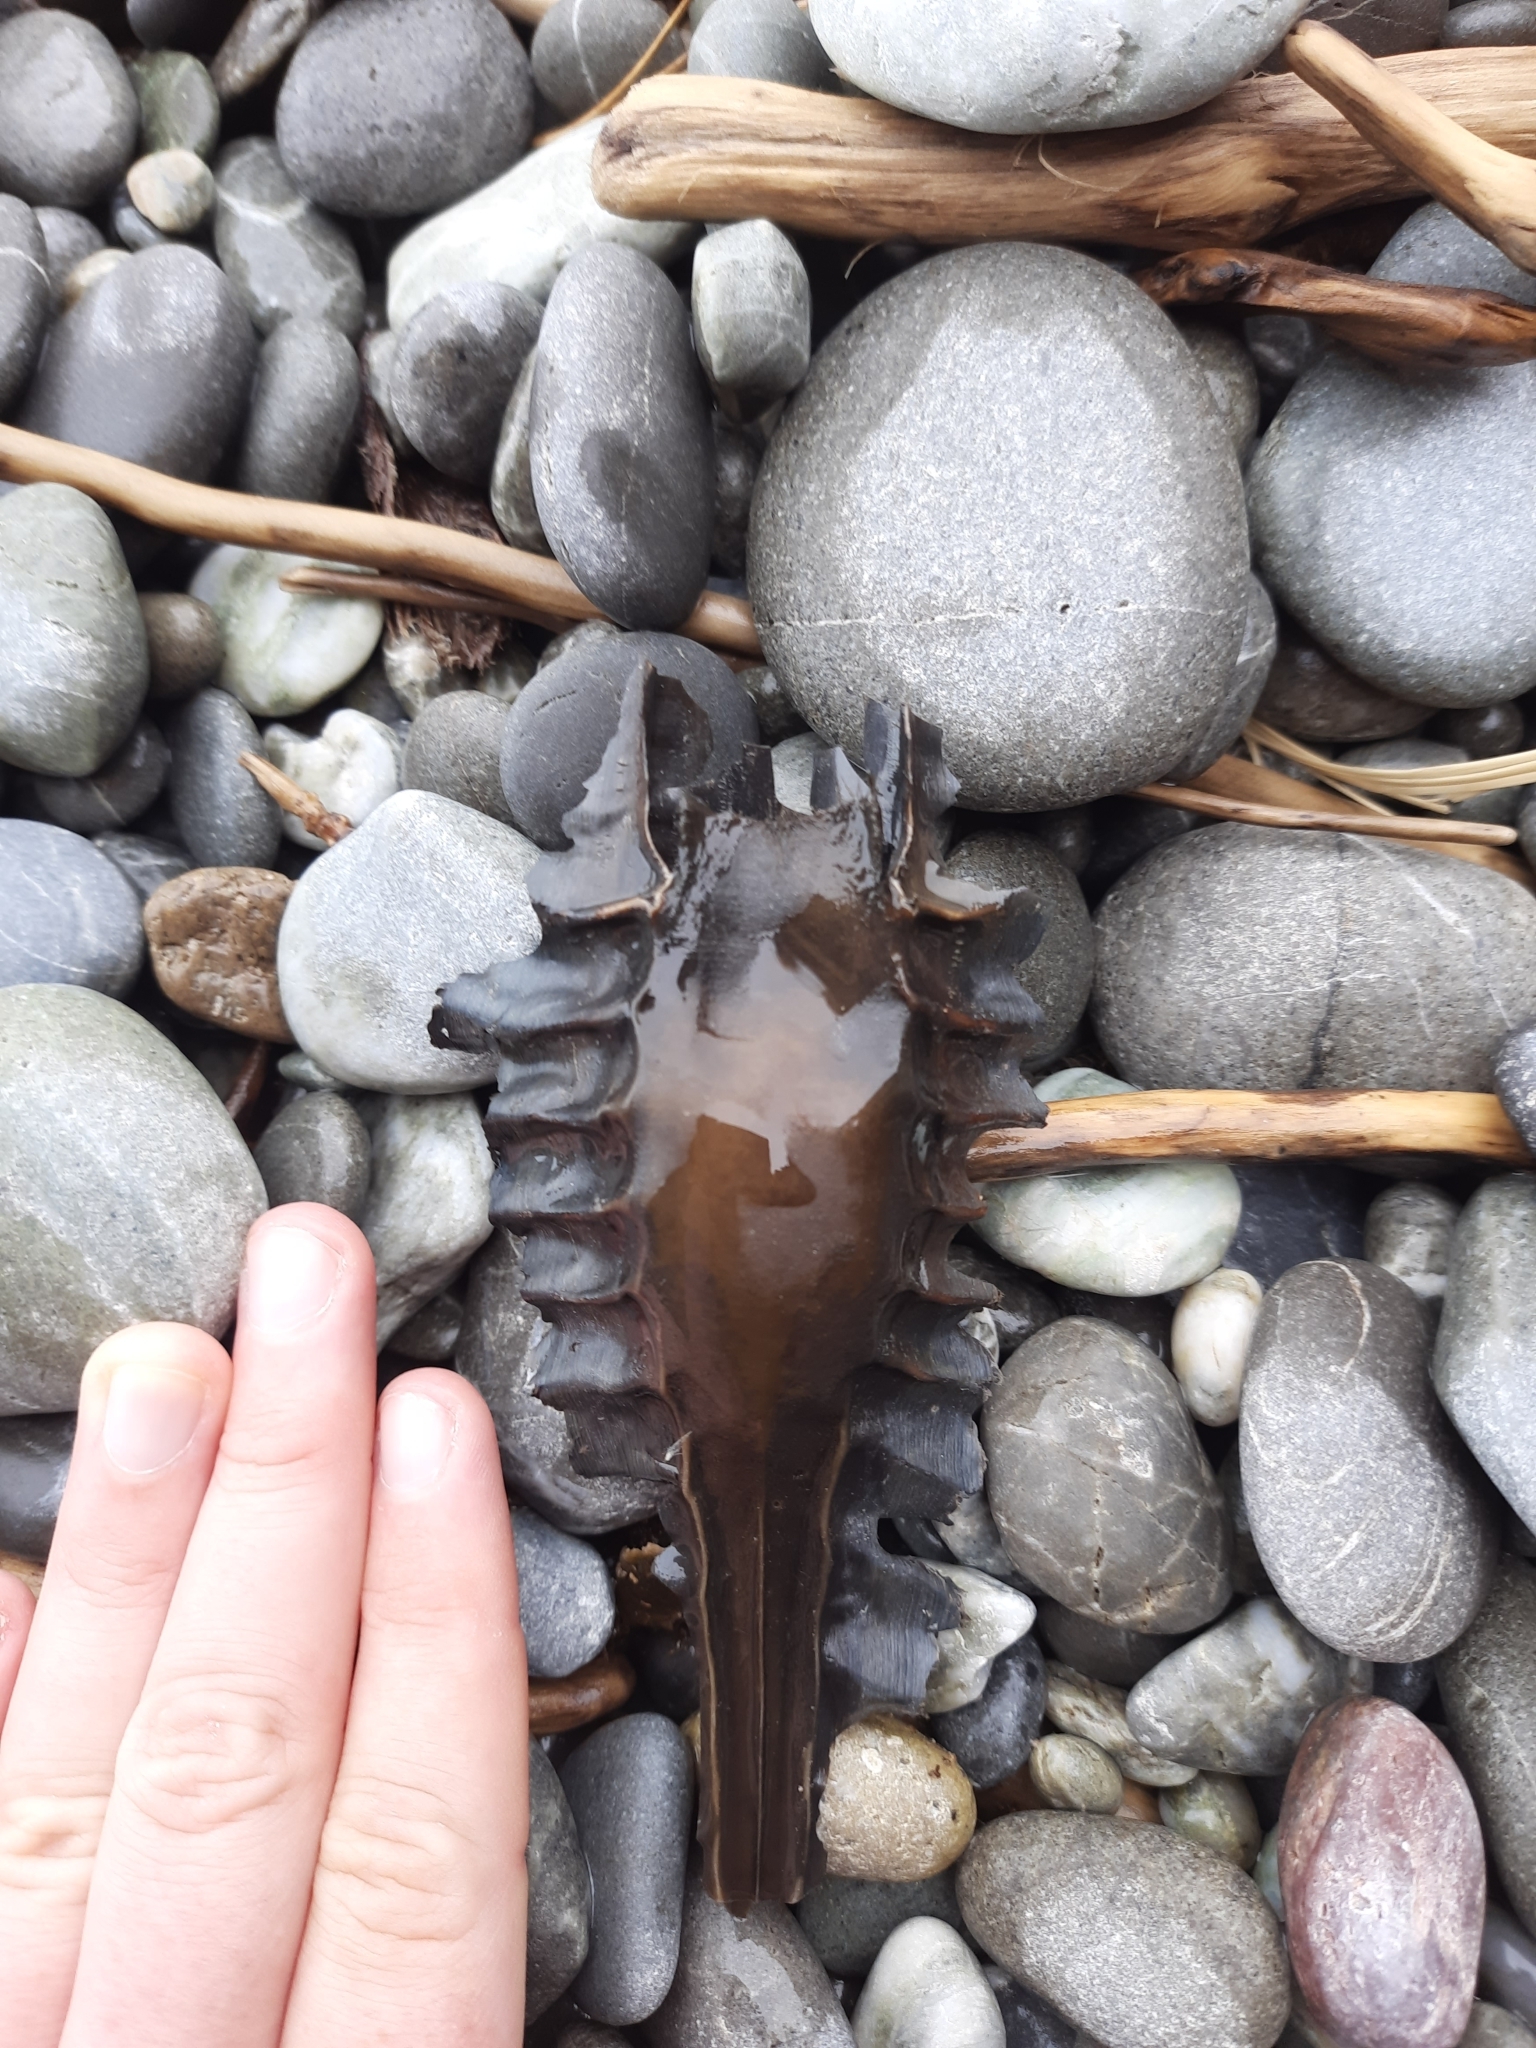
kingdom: Animalia
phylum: Chordata
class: Holocephali
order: Chimaeriformes
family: Callorhinchidae
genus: Callorhinchus
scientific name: Callorhinchus milii
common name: Elephant fish
